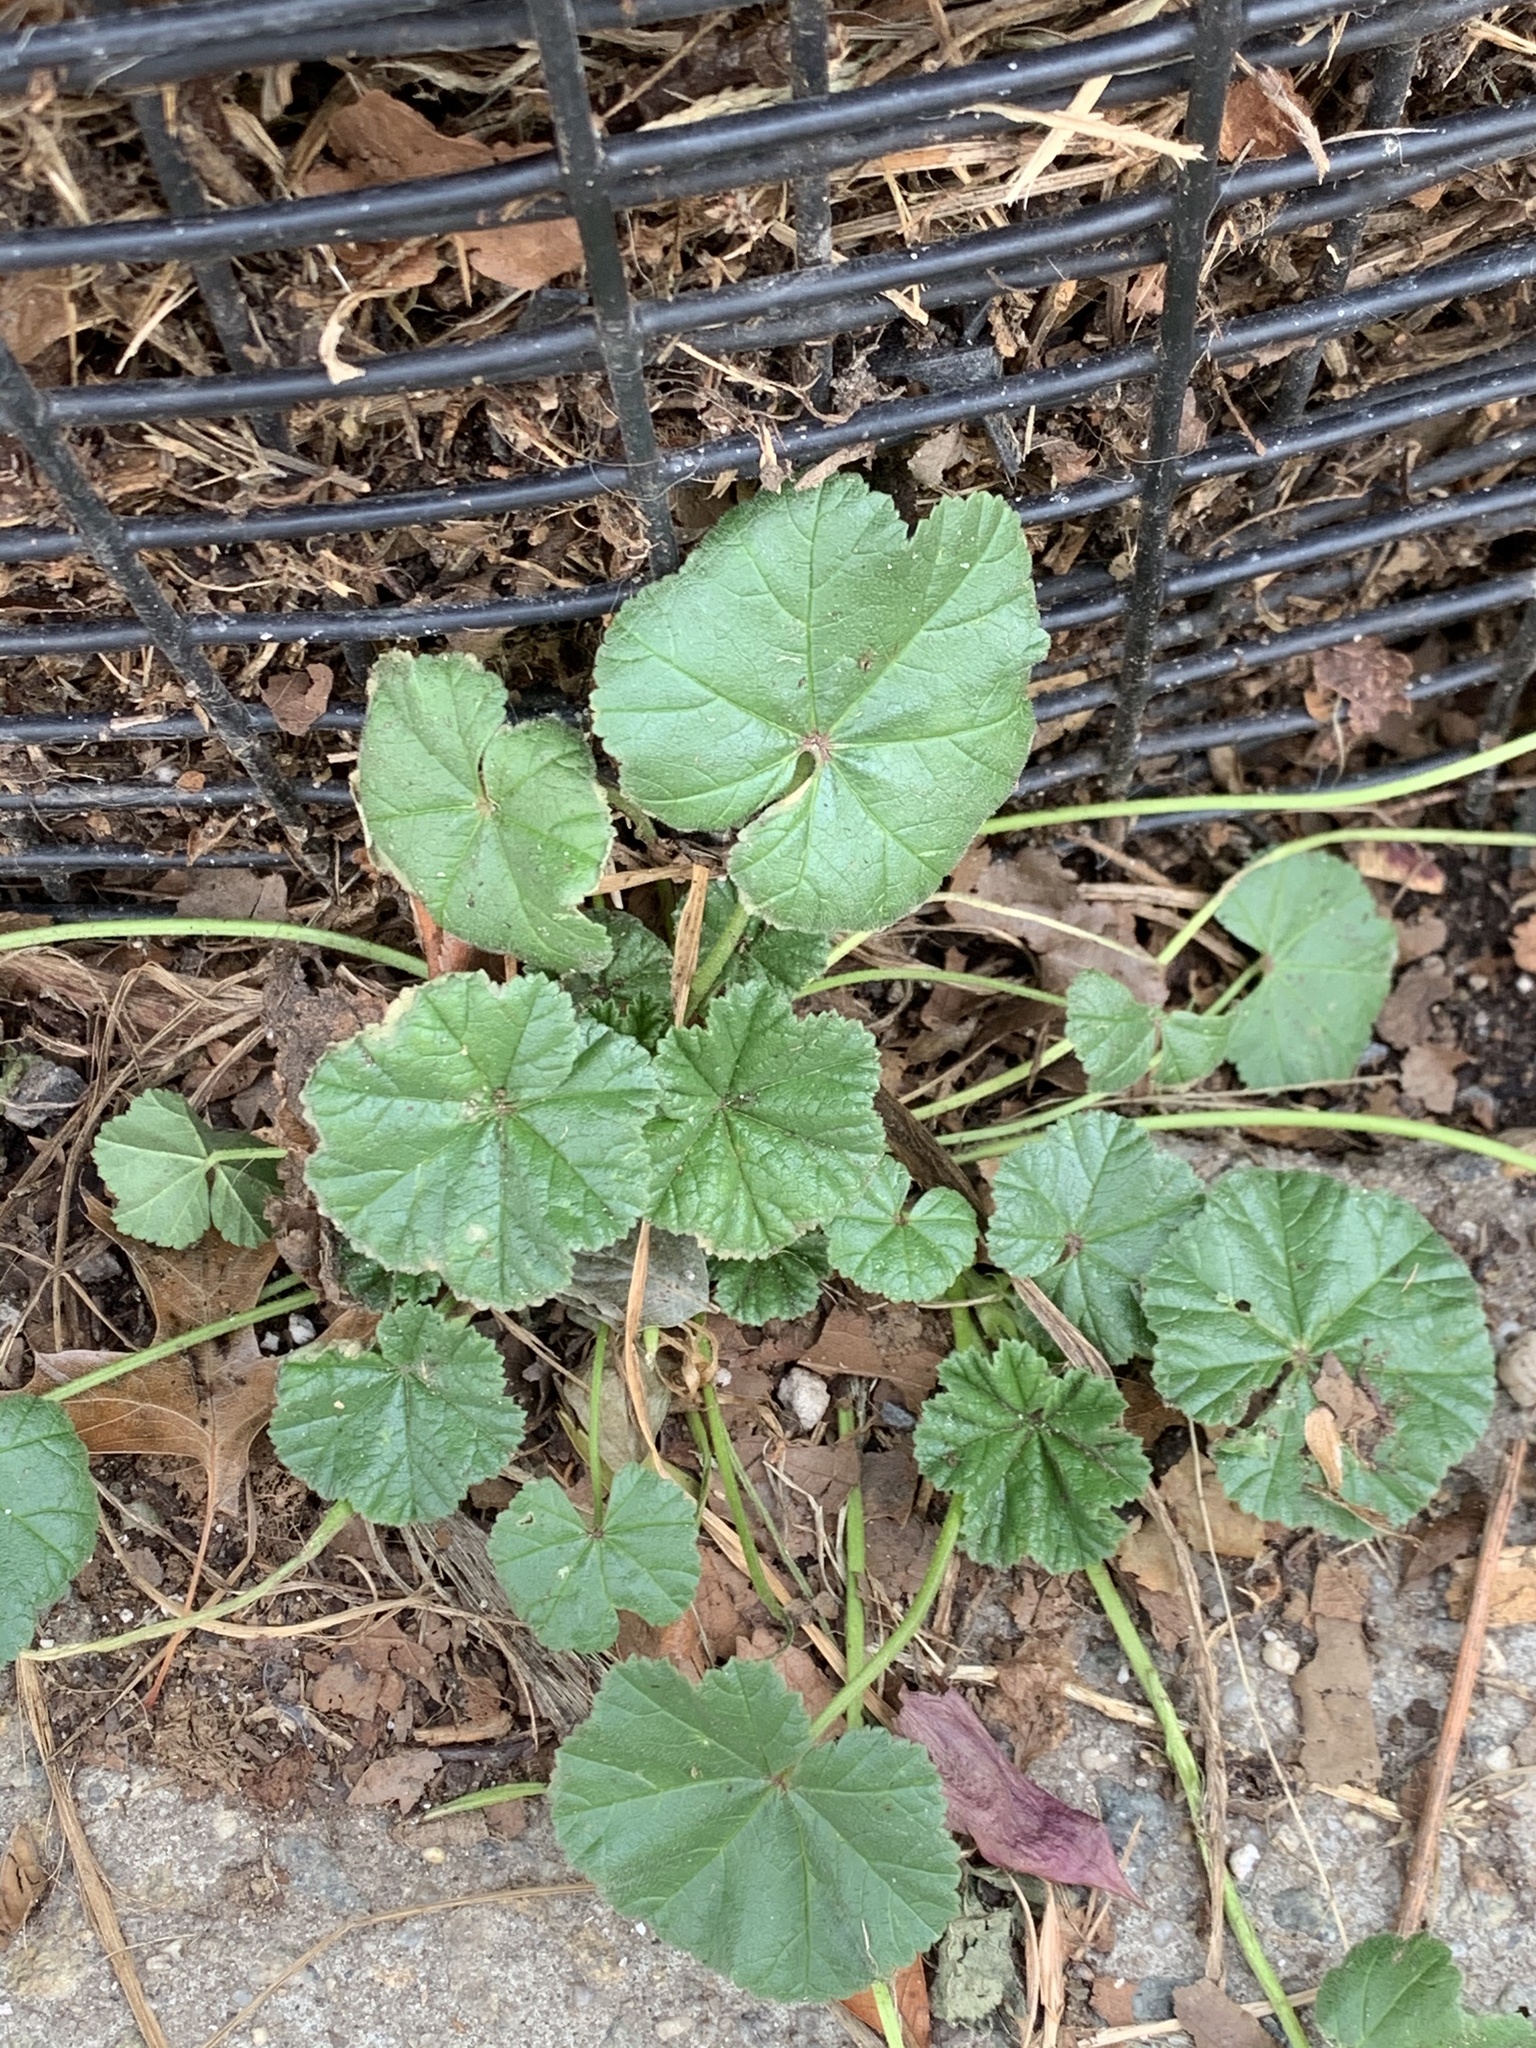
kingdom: Plantae
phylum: Tracheophyta
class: Magnoliopsida
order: Malvales
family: Malvaceae
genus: Malva
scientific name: Malva neglecta
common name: Common mallow
